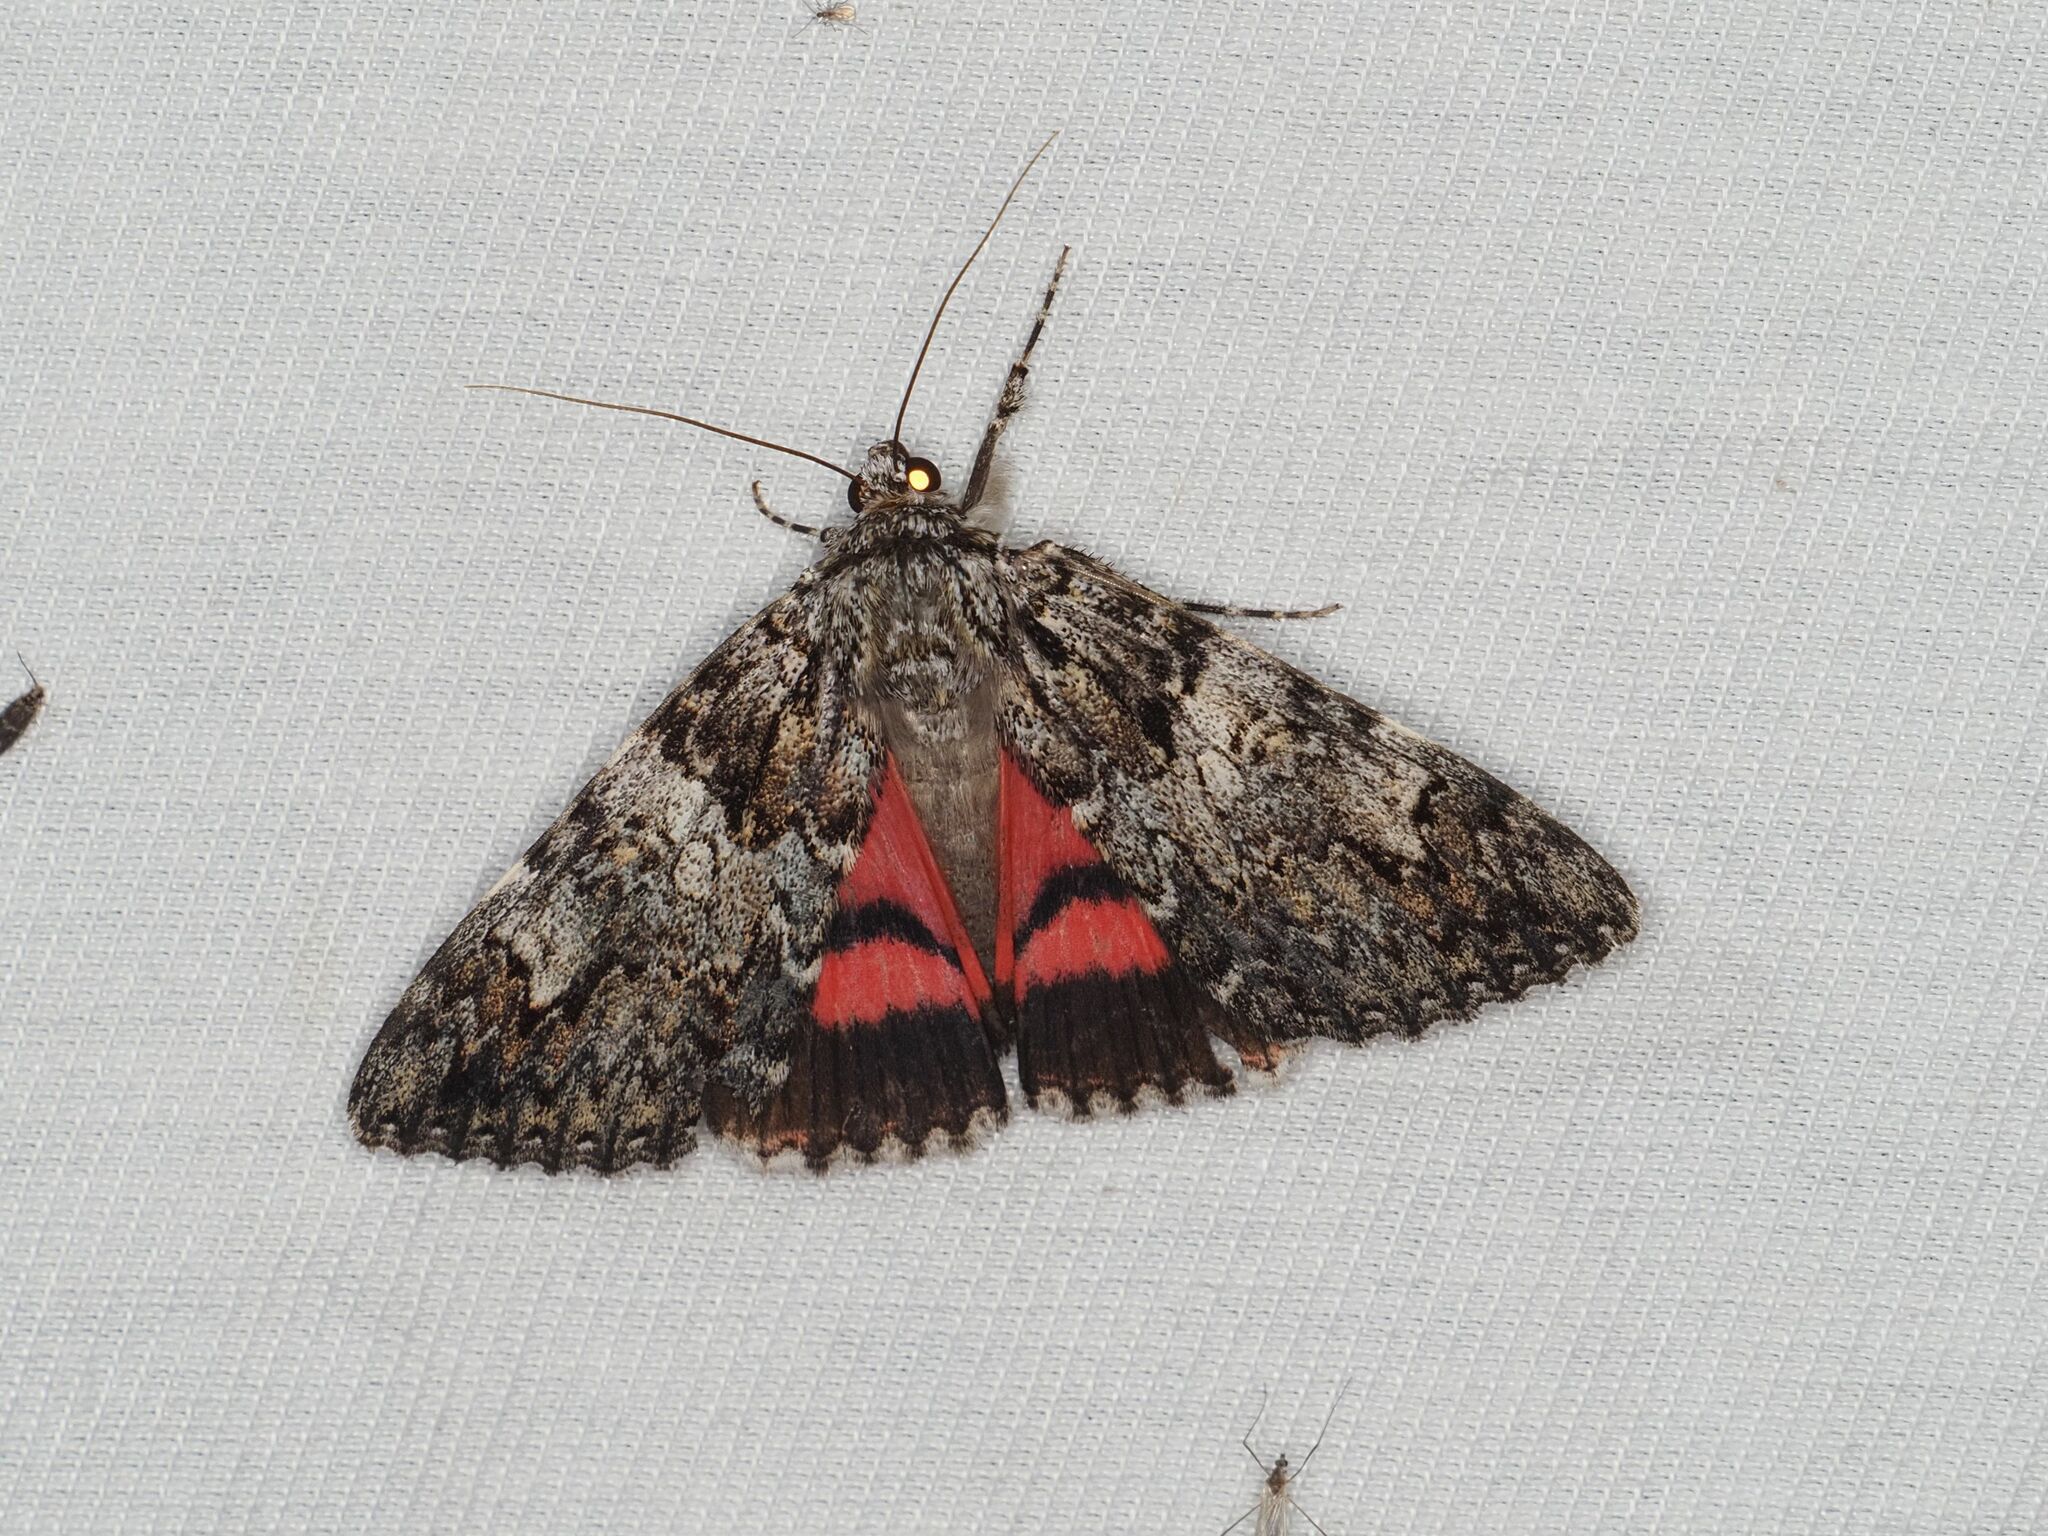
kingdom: Animalia
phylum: Arthropoda
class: Insecta
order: Lepidoptera
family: Erebidae
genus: Catocala
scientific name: Catocala promissa
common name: Light crimson underwing
